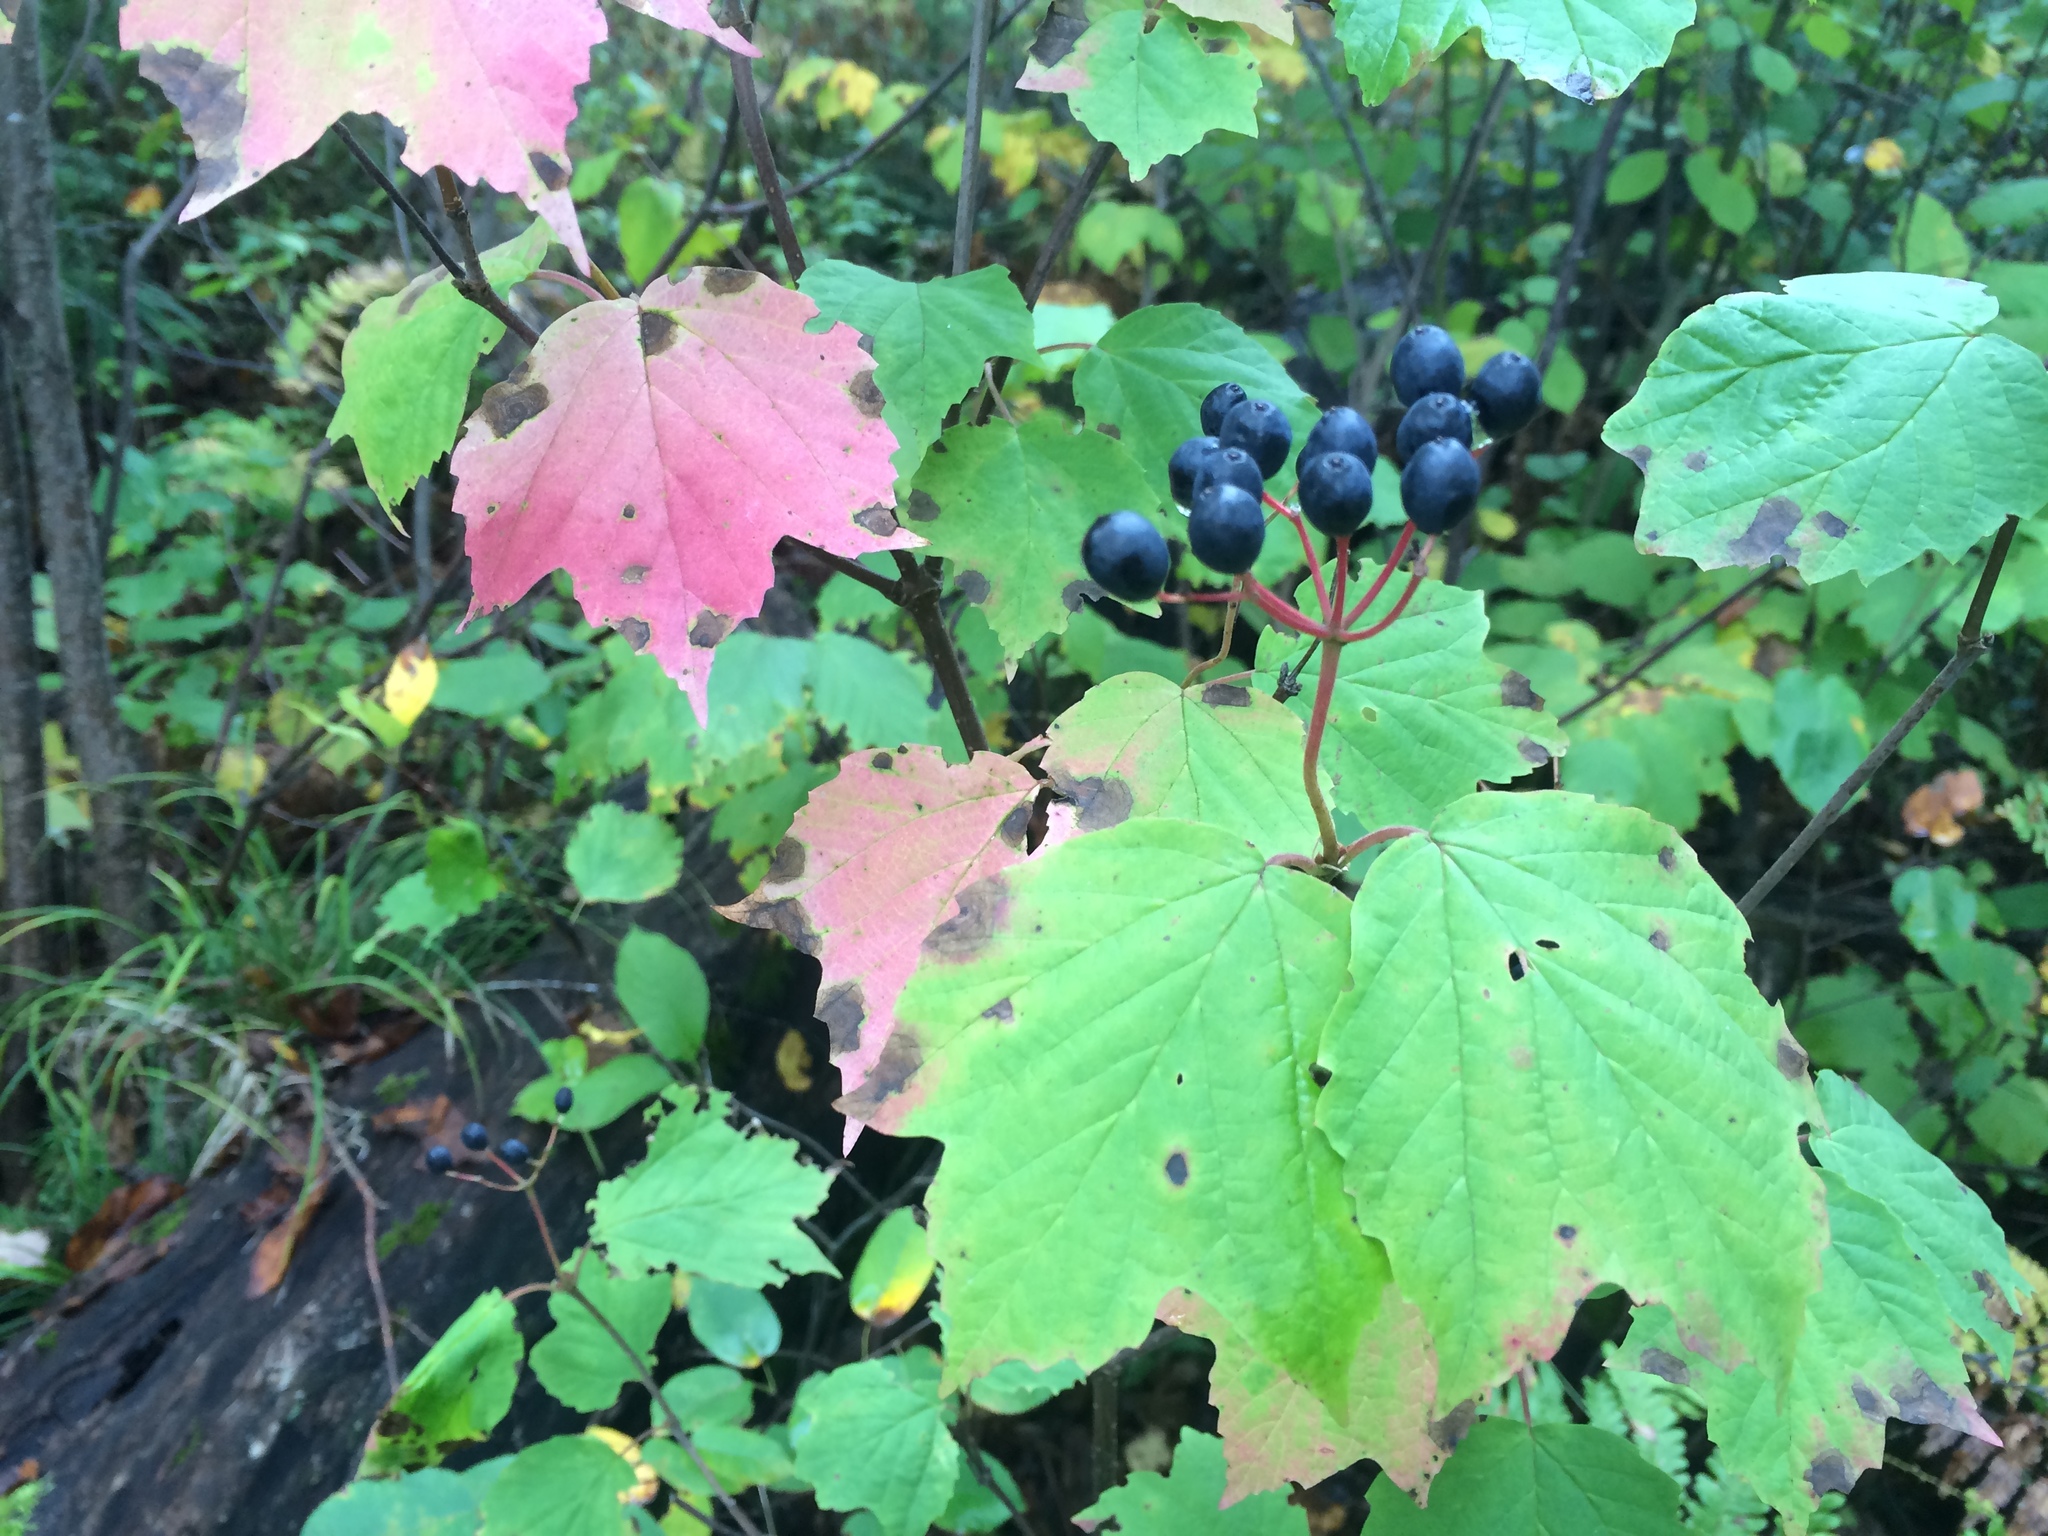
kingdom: Plantae
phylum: Tracheophyta
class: Magnoliopsida
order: Dipsacales
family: Viburnaceae
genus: Viburnum
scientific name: Viburnum acerifolium
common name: Dockmackie
